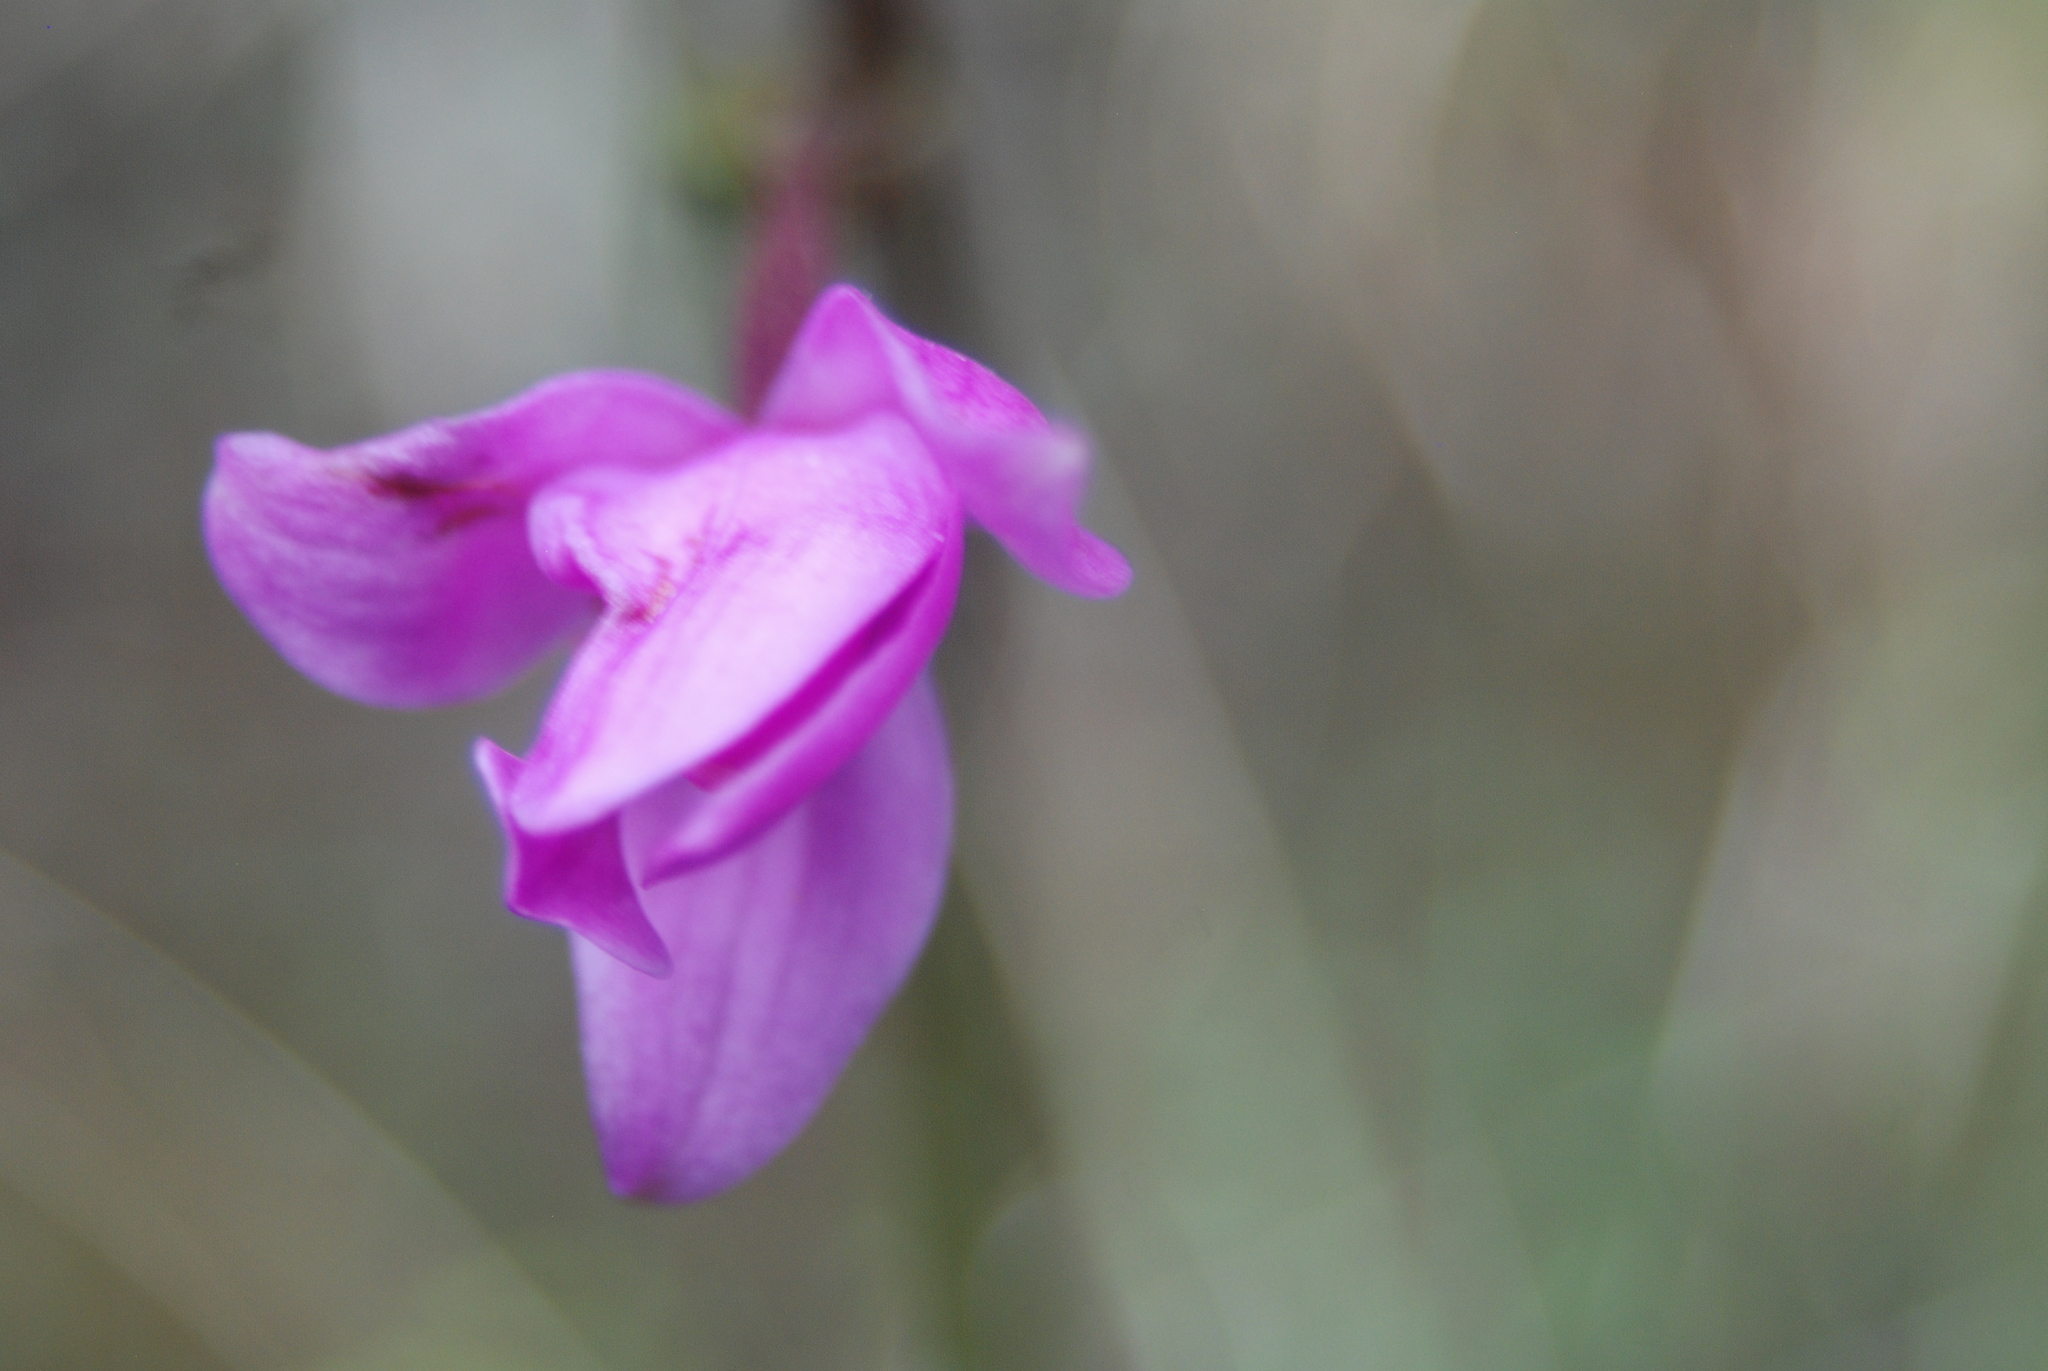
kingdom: Plantae
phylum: Tracheophyta
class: Liliopsida
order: Asparagales
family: Orchidaceae
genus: Spathoglottis
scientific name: Spathoglottis plicata
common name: Philippine ground orchid
